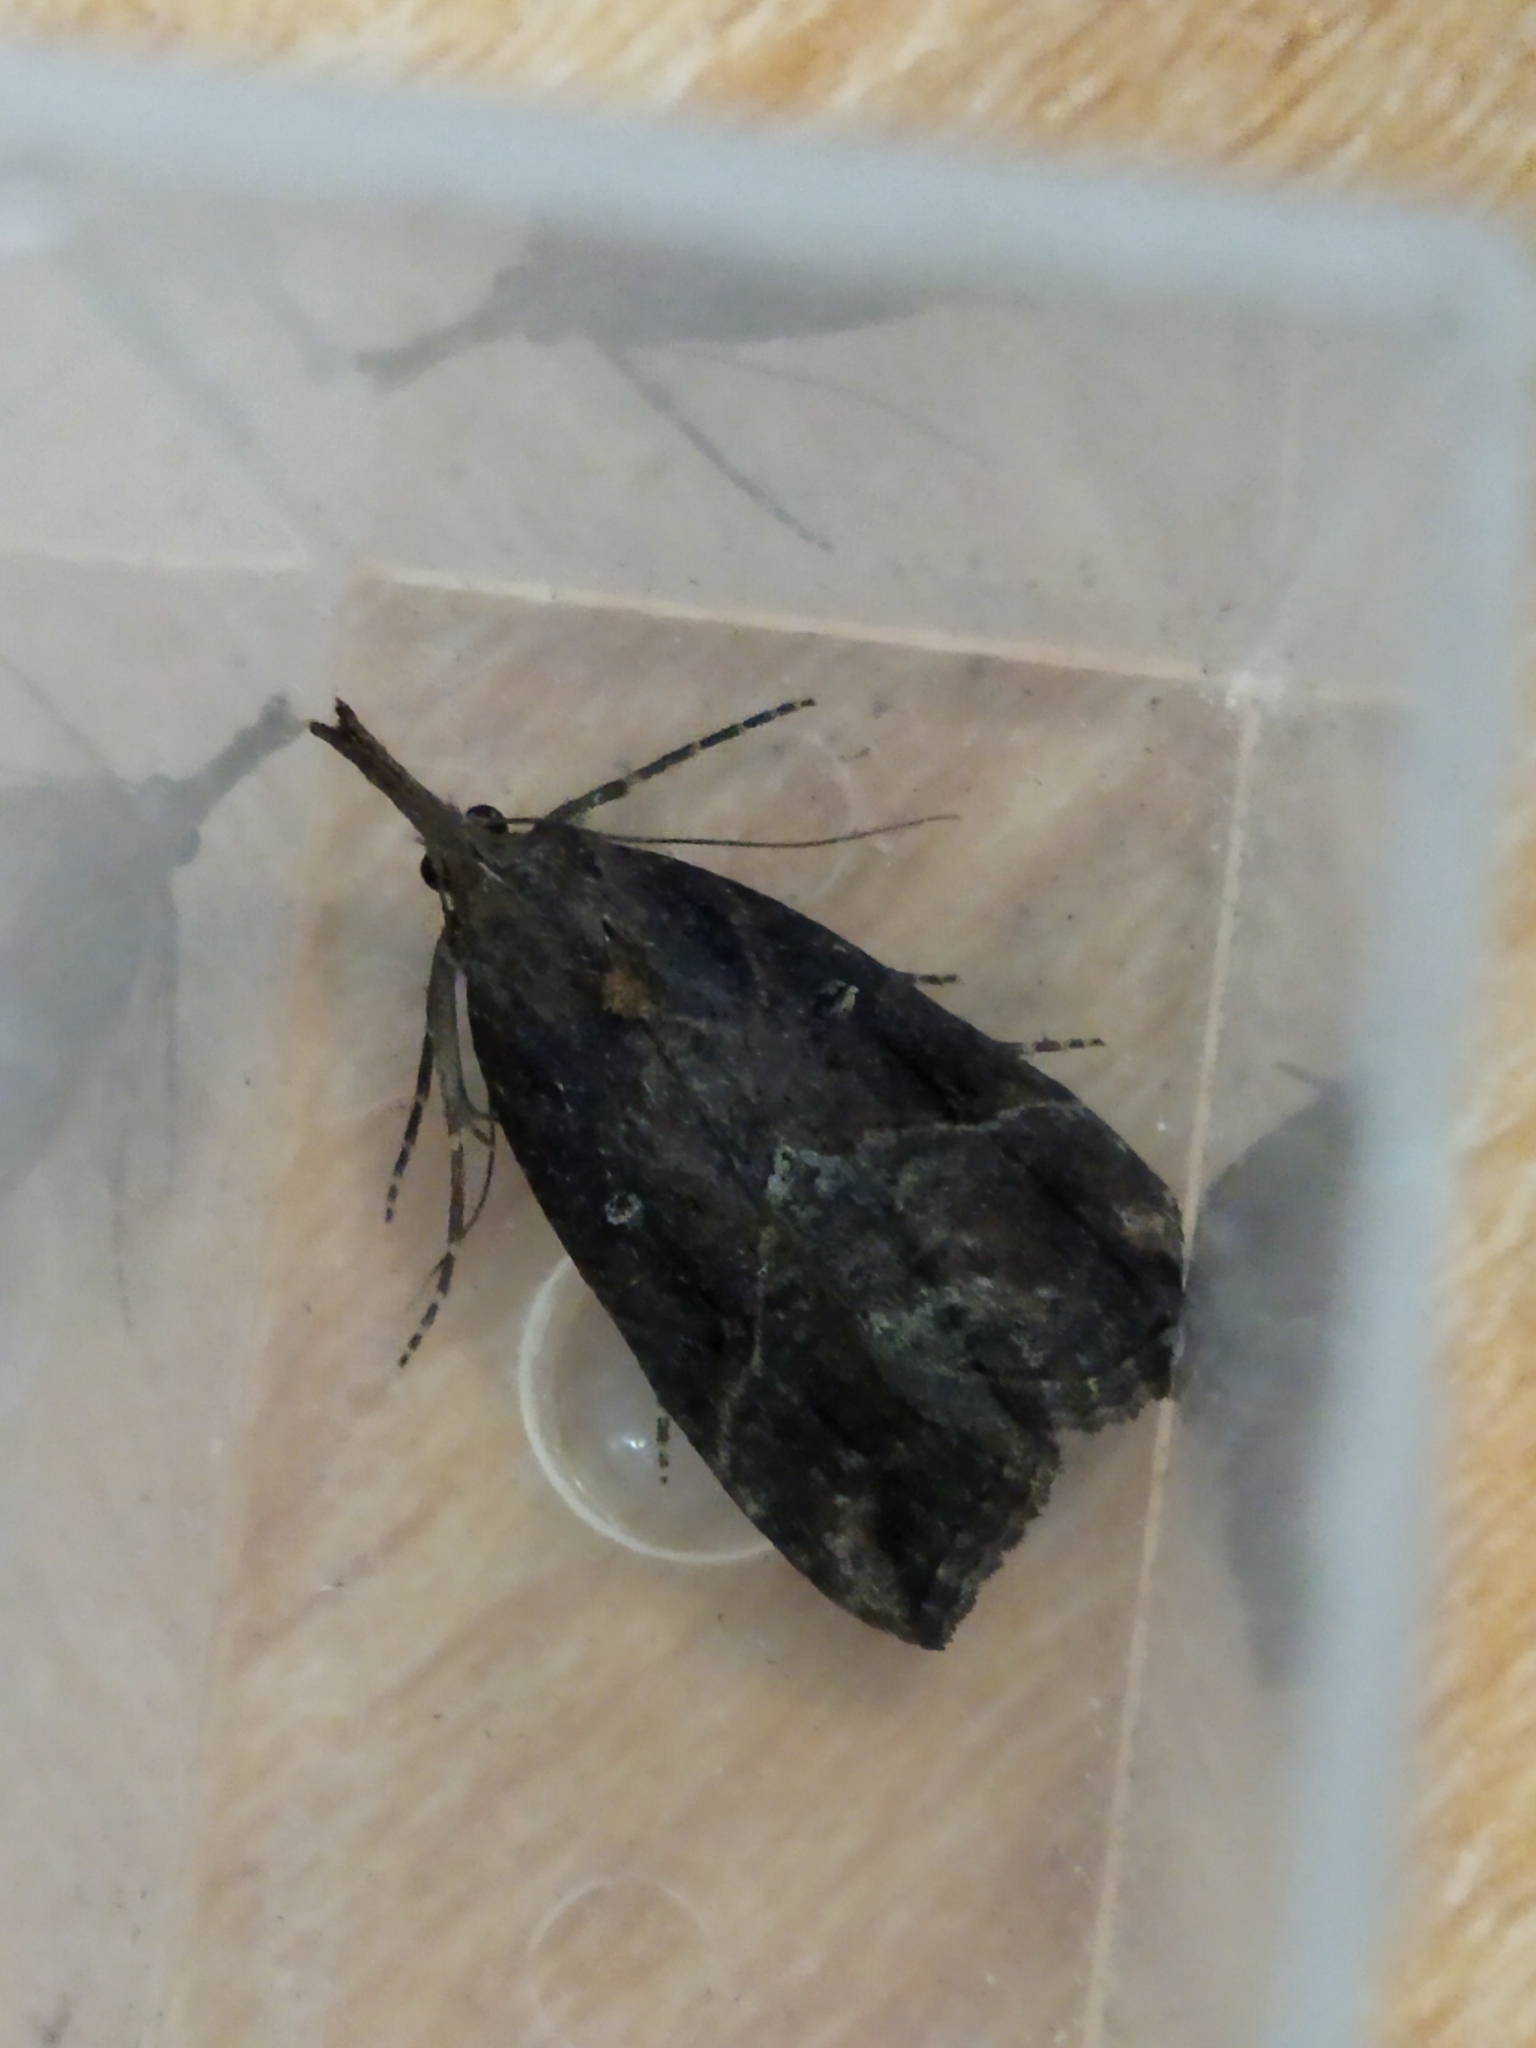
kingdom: Animalia
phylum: Arthropoda
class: Insecta
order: Lepidoptera
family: Erebidae
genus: Hypena
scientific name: Hypena rostralis
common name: Buttoned snout
